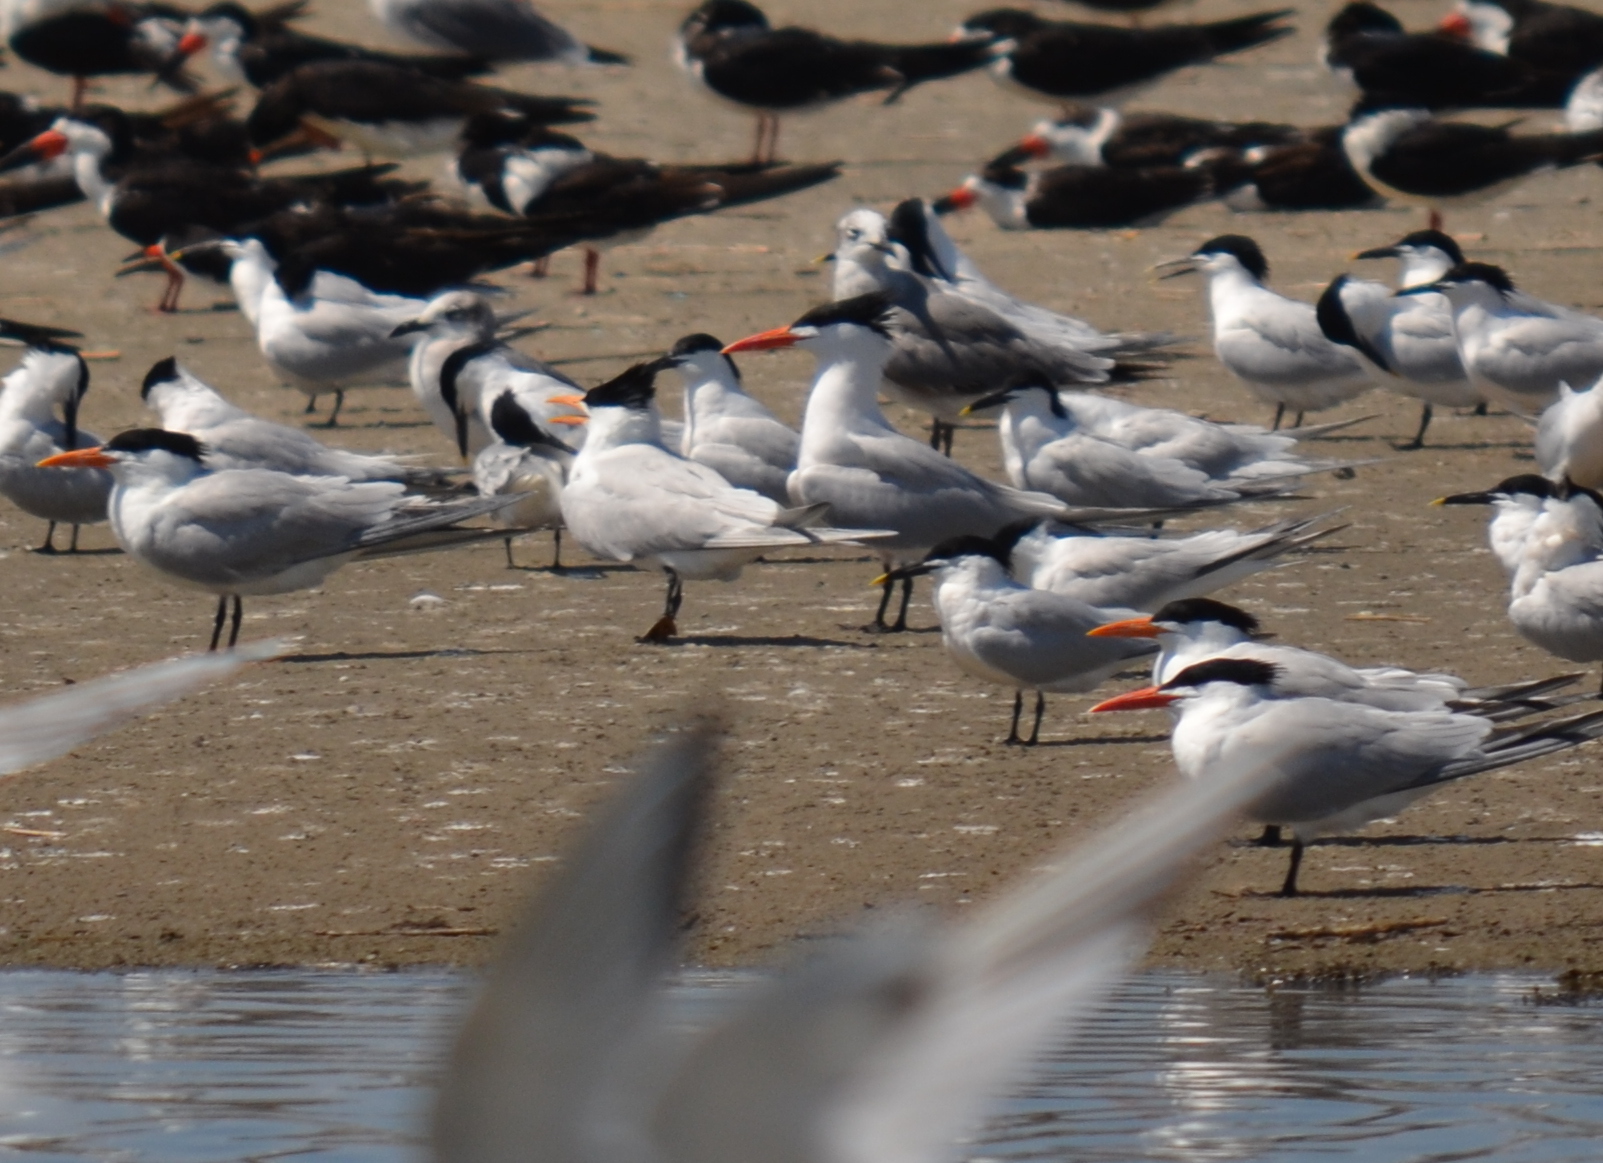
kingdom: Animalia
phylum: Chordata
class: Aves
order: Charadriiformes
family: Laridae
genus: Hydroprogne
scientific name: Hydroprogne caspia
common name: Caspian tern
